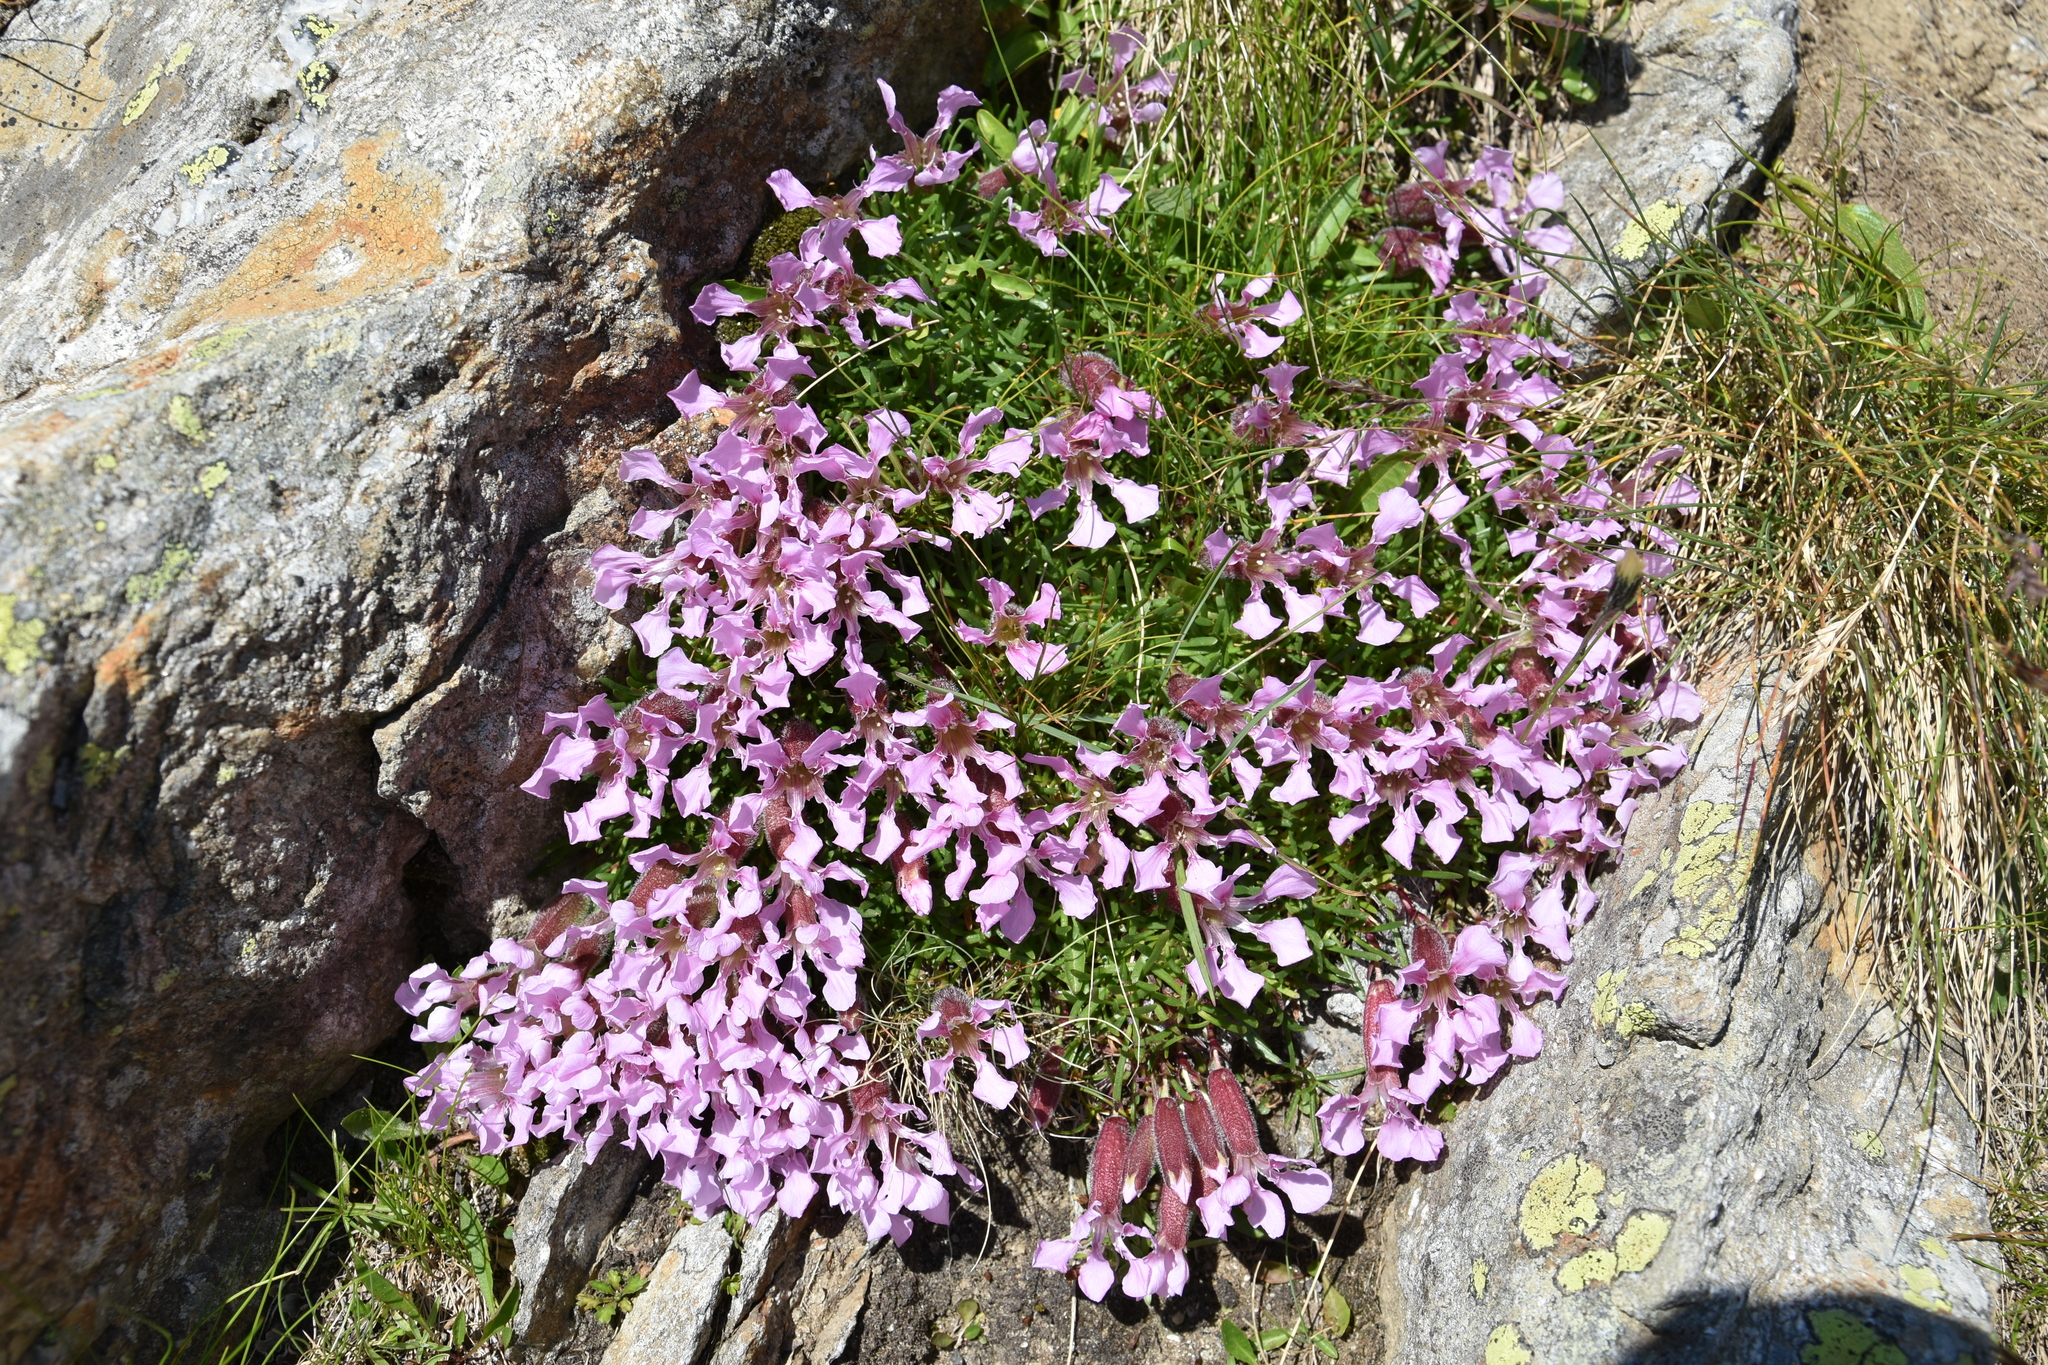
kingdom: Plantae
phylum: Tracheophyta
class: Magnoliopsida
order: Caryophyllales
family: Caryophyllaceae
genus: Saponaria
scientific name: Saponaria pumila
